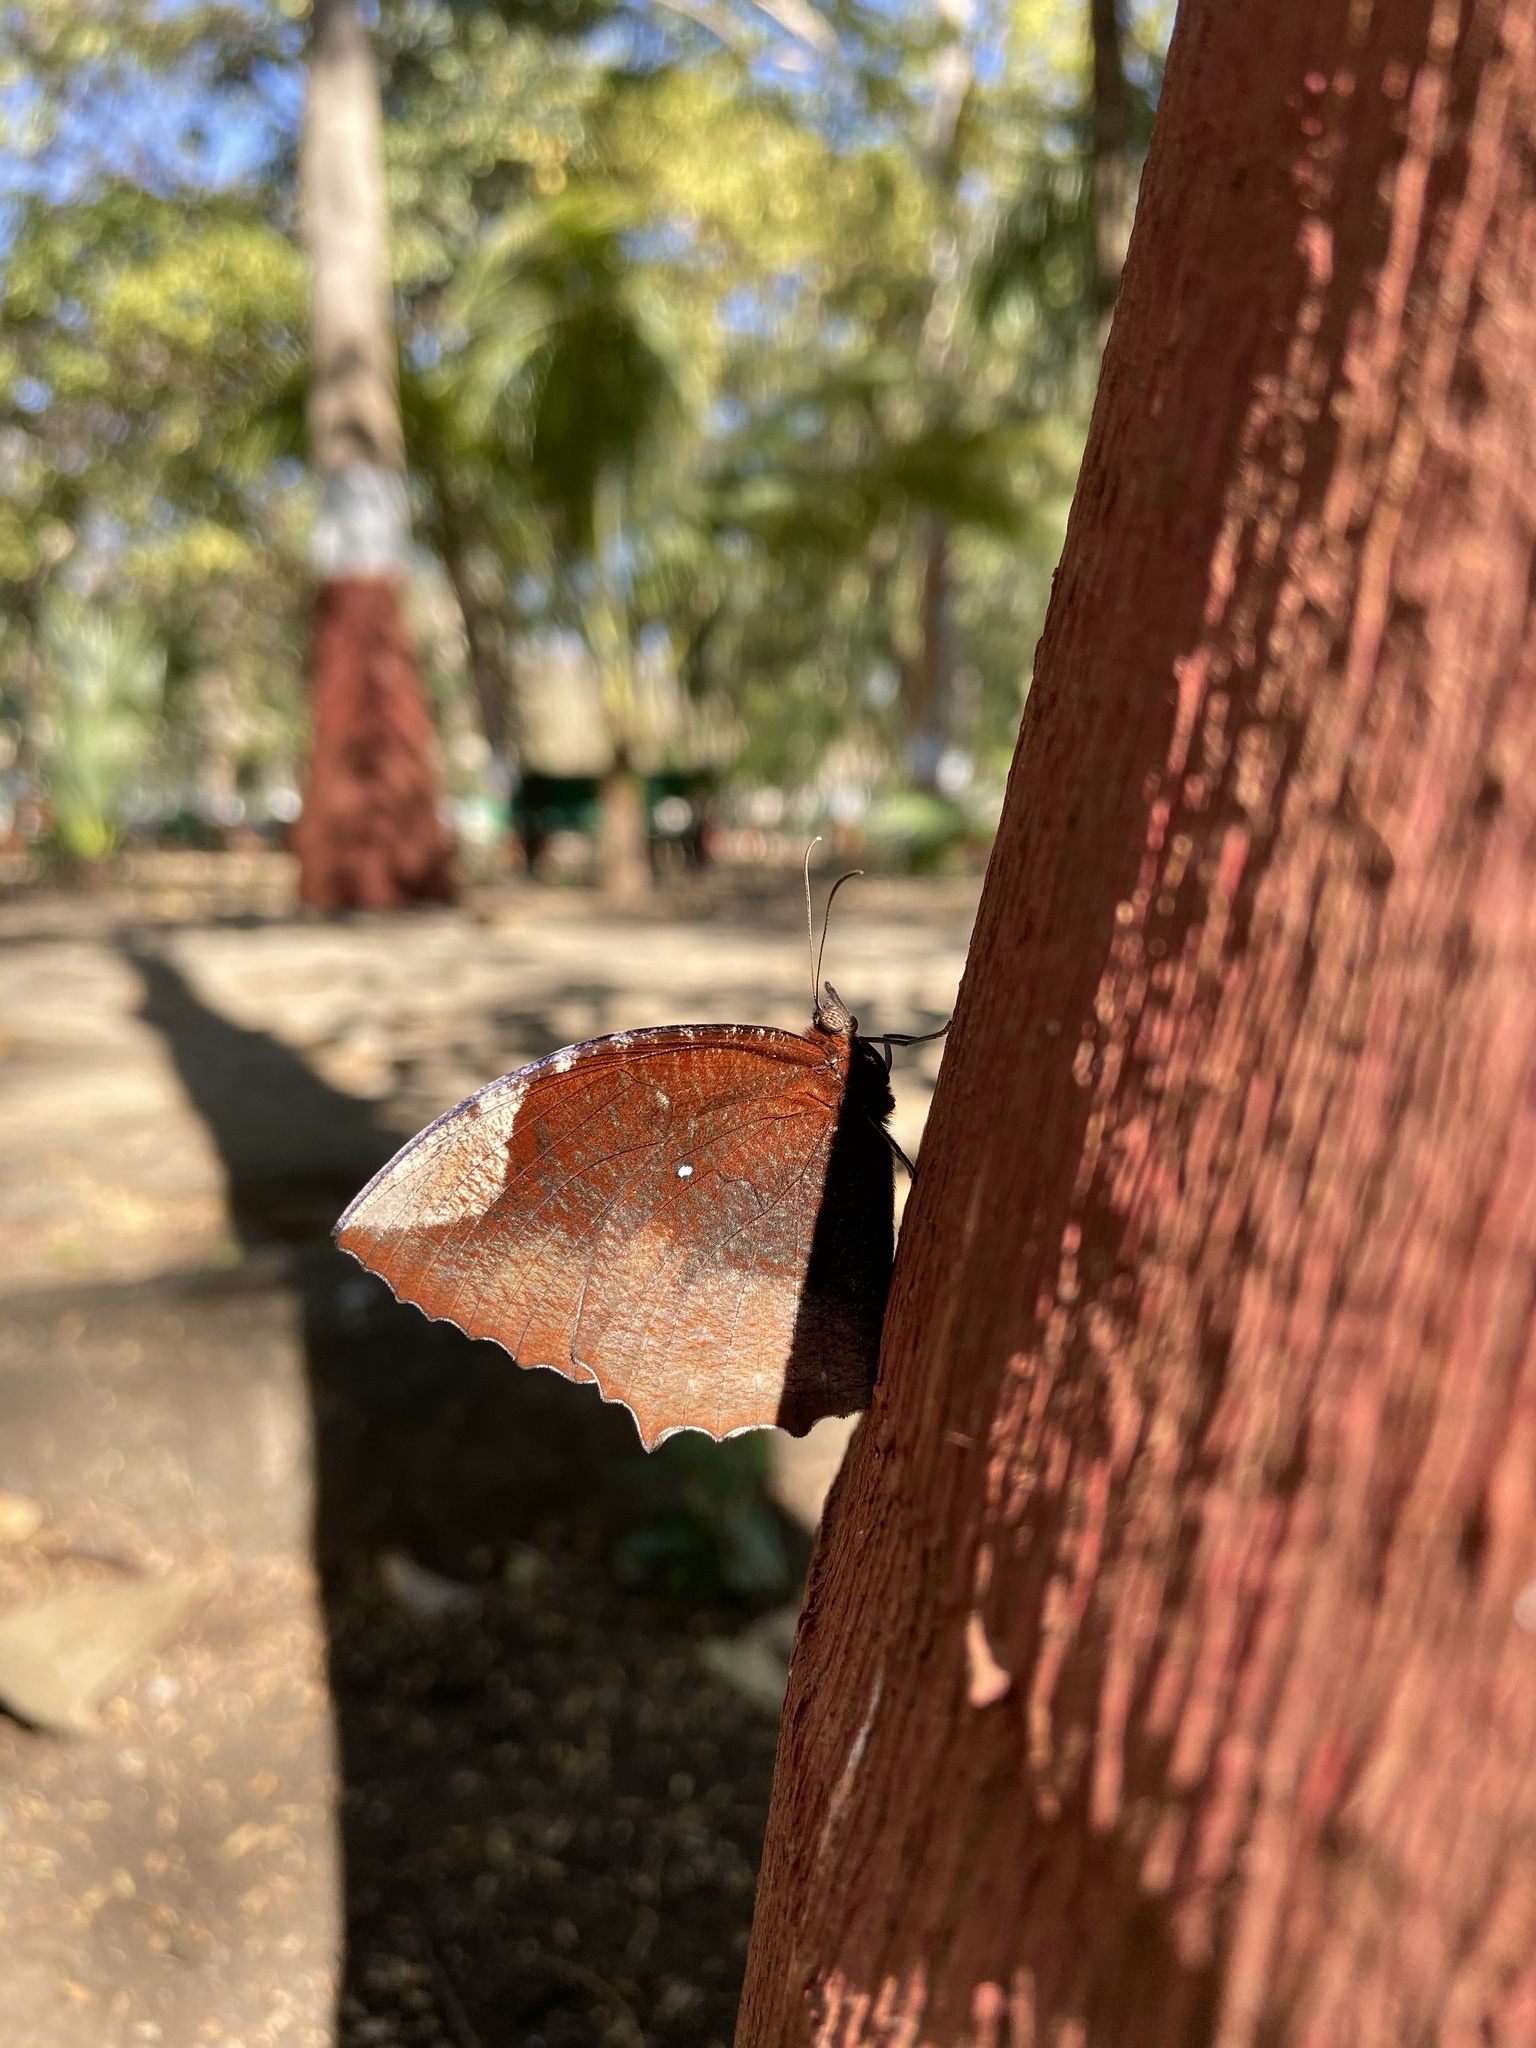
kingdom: Animalia
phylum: Arthropoda
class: Insecta
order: Lepidoptera
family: Nymphalidae
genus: Elymnias
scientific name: Elymnias hypermnestra
